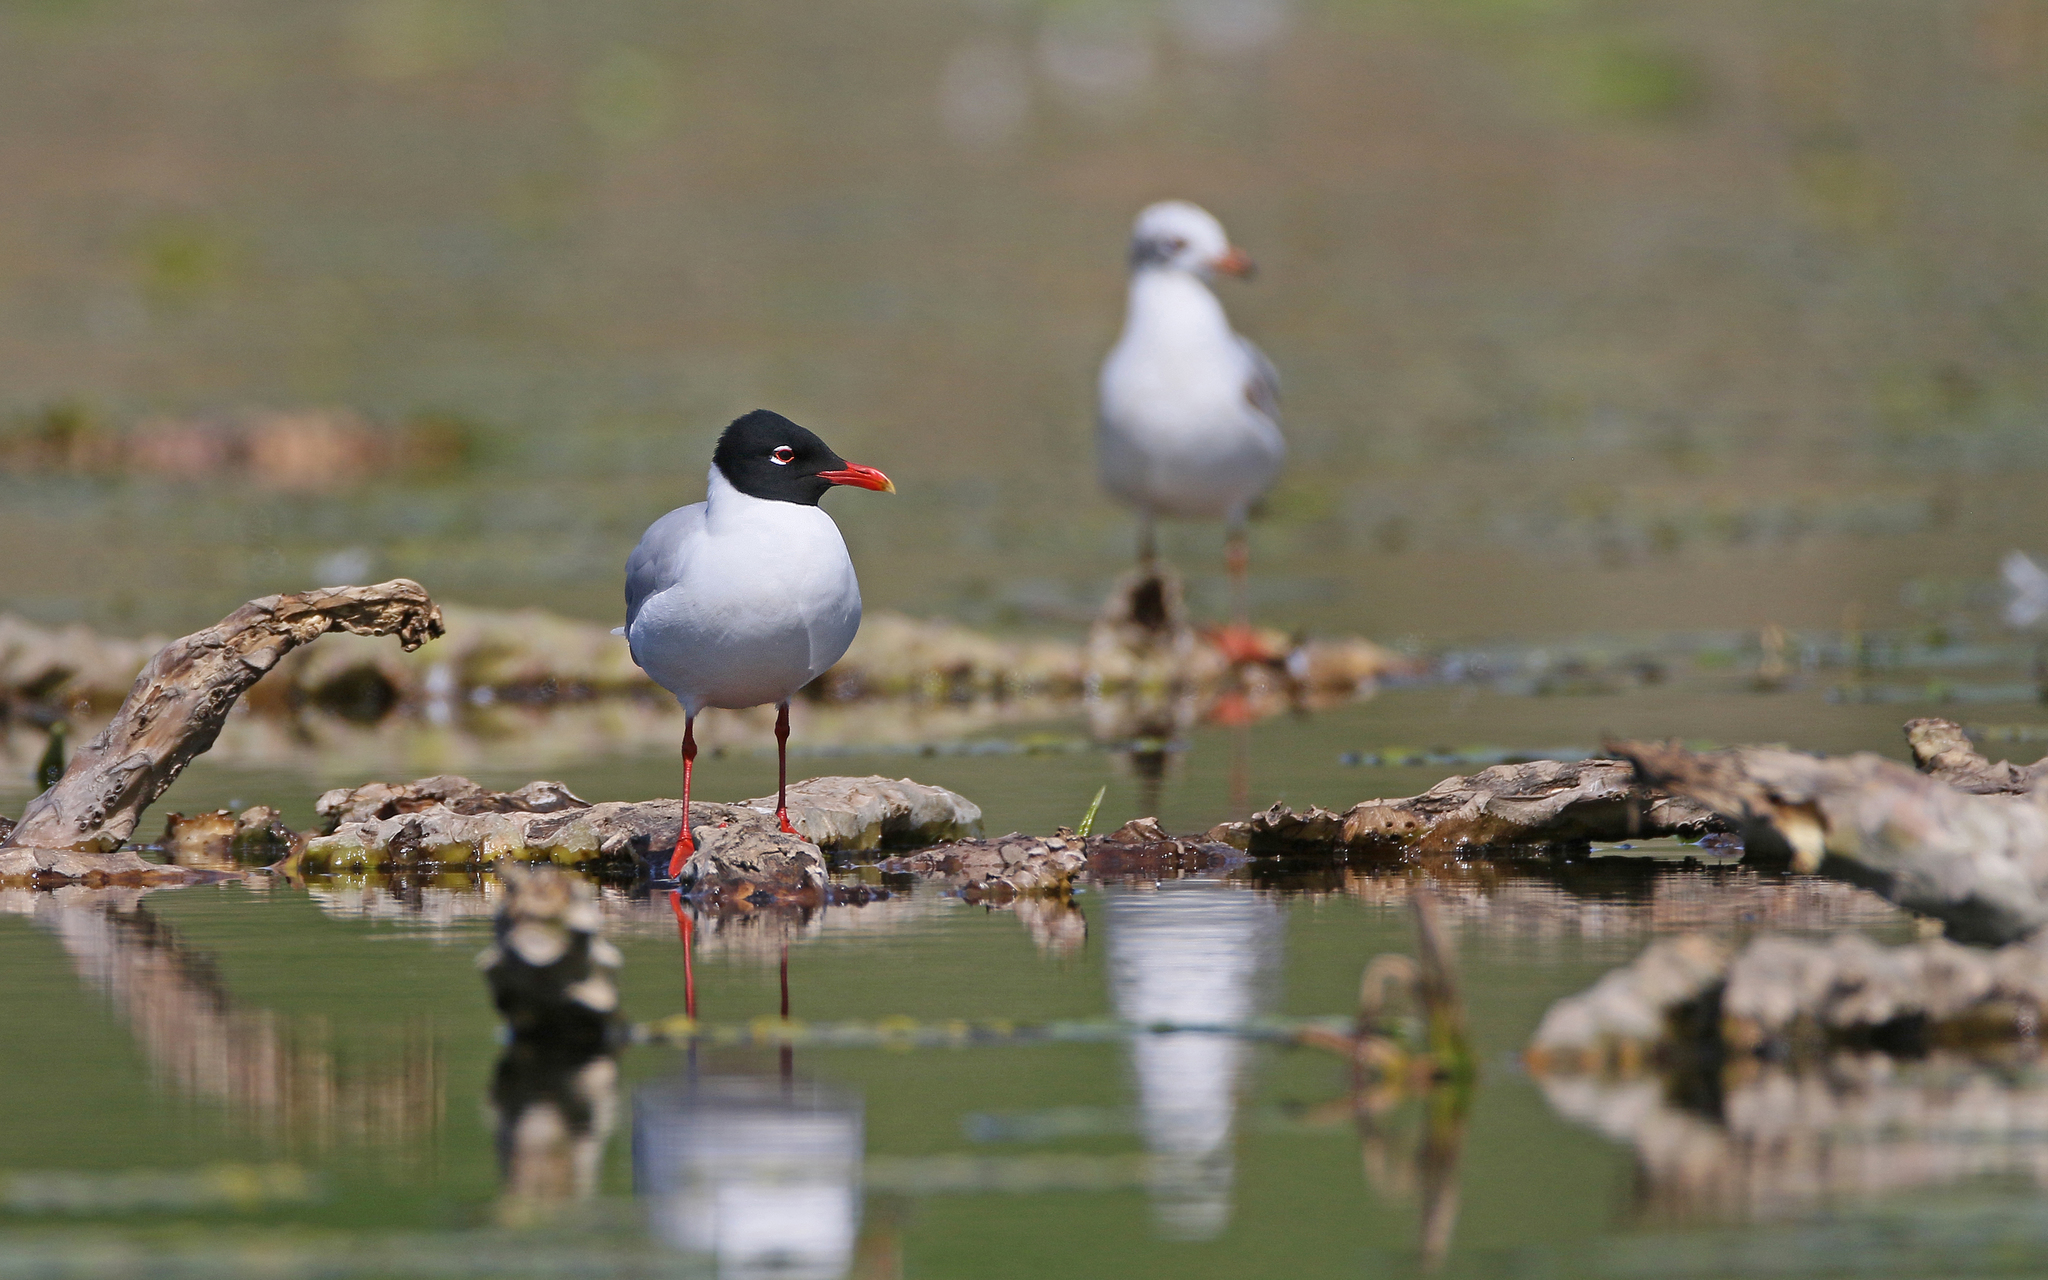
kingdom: Animalia
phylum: Chordata
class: Aves
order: Charadriiformes
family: Laridae
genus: Ichthyaetus
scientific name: Ichthyaetus melanocephalus
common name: Mediterranean gull
